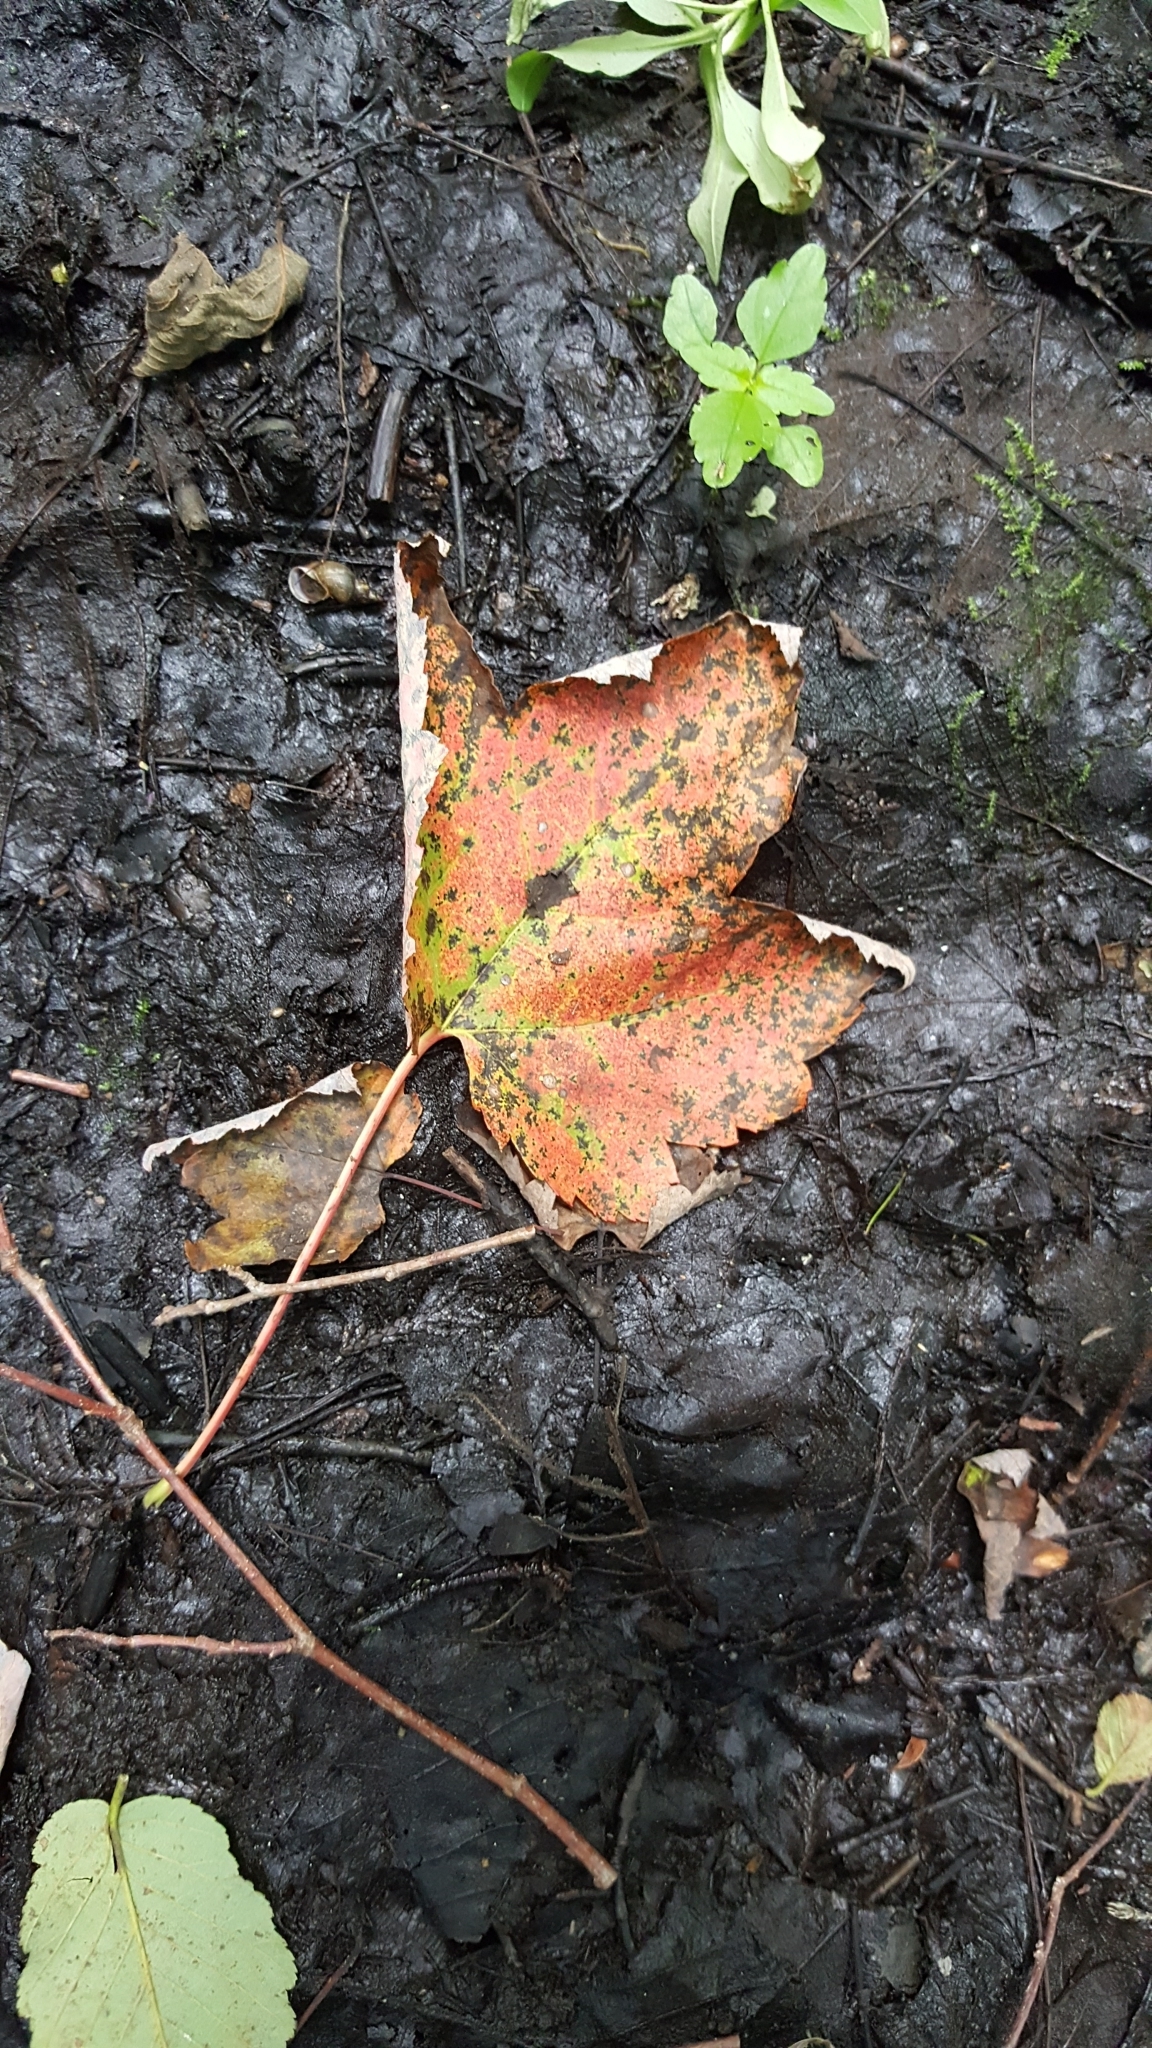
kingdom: Plantae
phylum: Tracheophyta
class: Magnoliopsida
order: Sapindales
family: Sapindaceae
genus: Acer
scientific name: Acer rubrum
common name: Red maple
